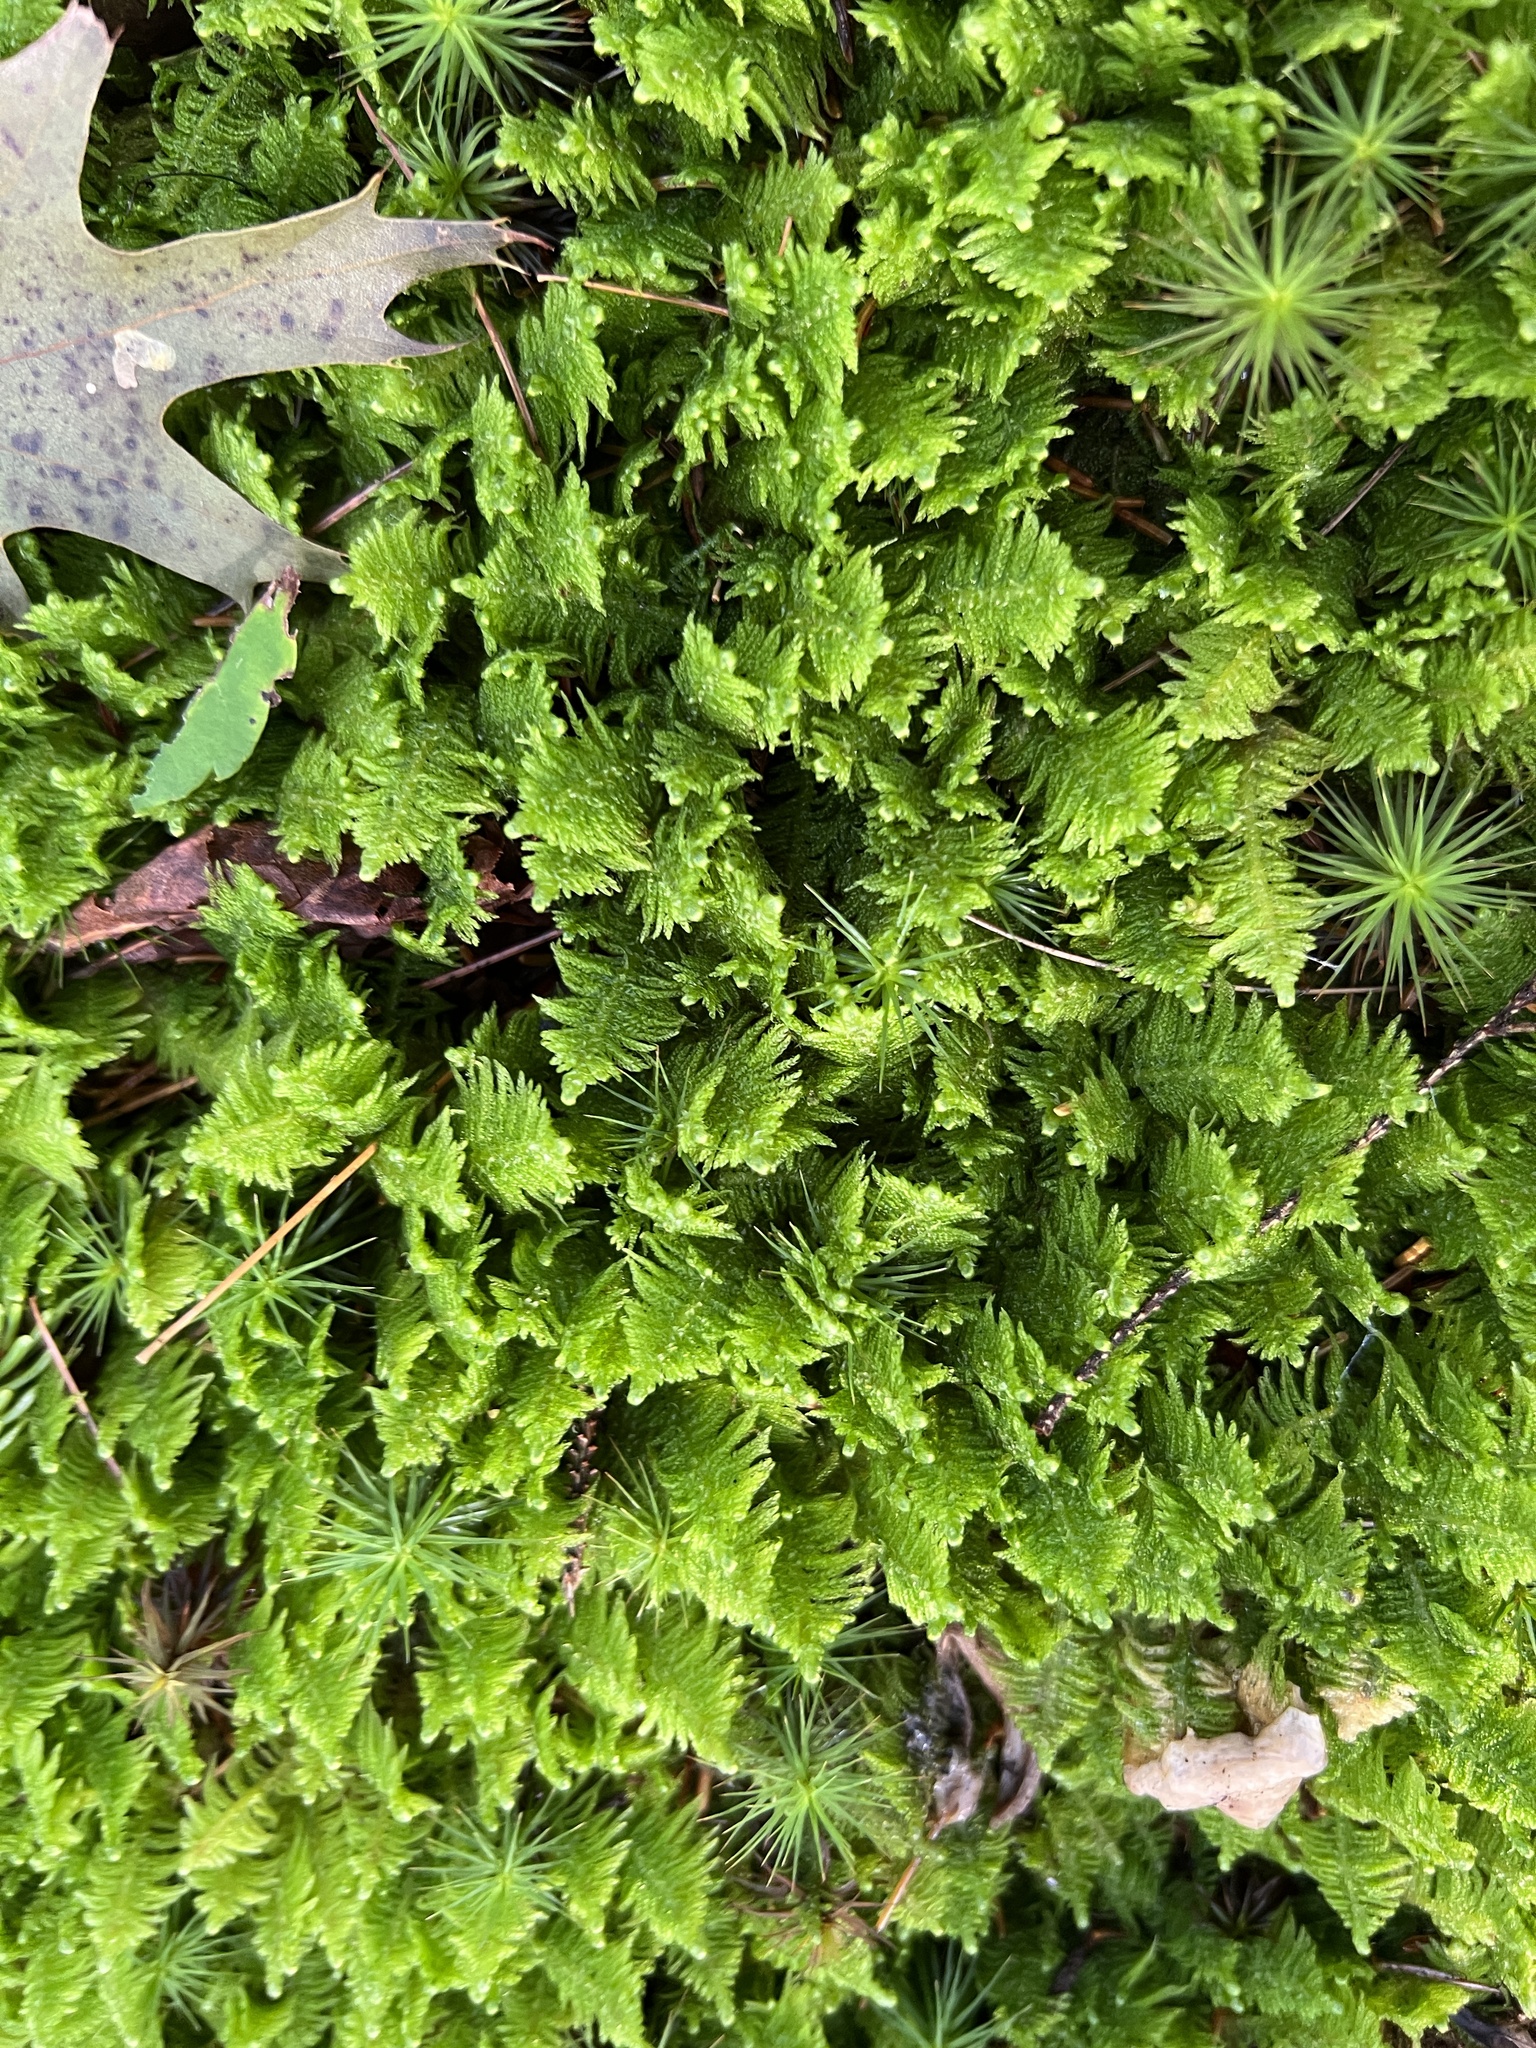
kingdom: Plantae
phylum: Bryophyta
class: Bryopsida
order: Hypnales
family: Pylaisiaceae
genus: Ptilium
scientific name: Ptilium crista-castrensis
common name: Knight's plume moss
